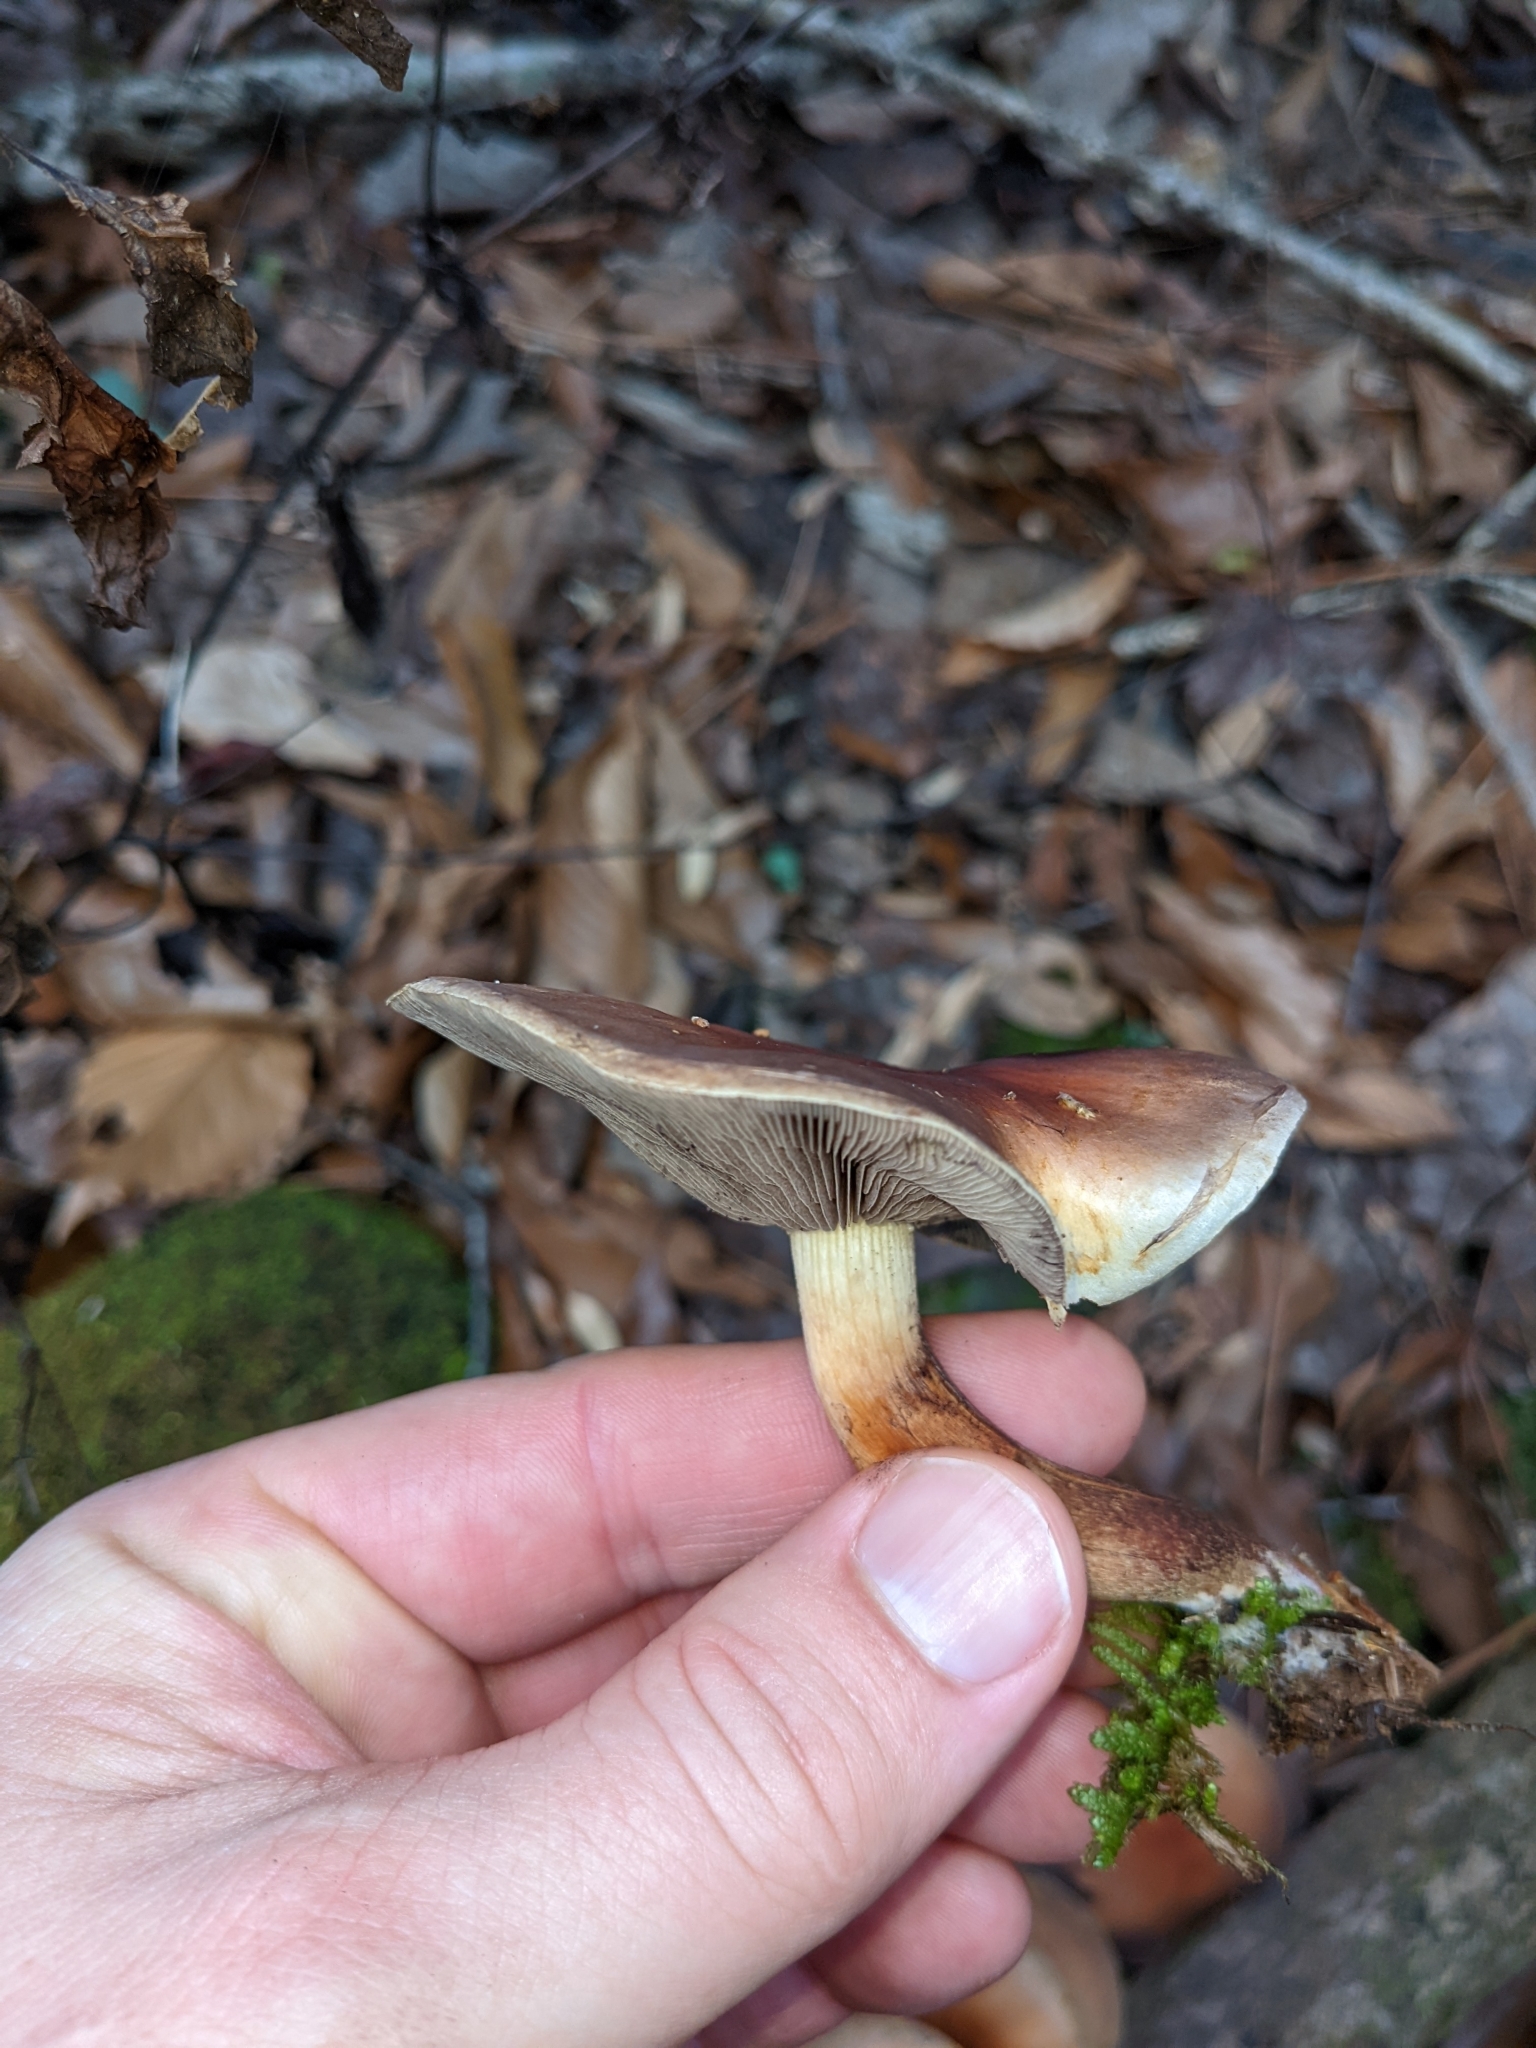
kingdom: Fungi
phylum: Basidiomycota
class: Agaricomycetes
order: Agaricales
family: Strophariaceae
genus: Hypholoma
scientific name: Hypholoma lateritium
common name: Brick caps
